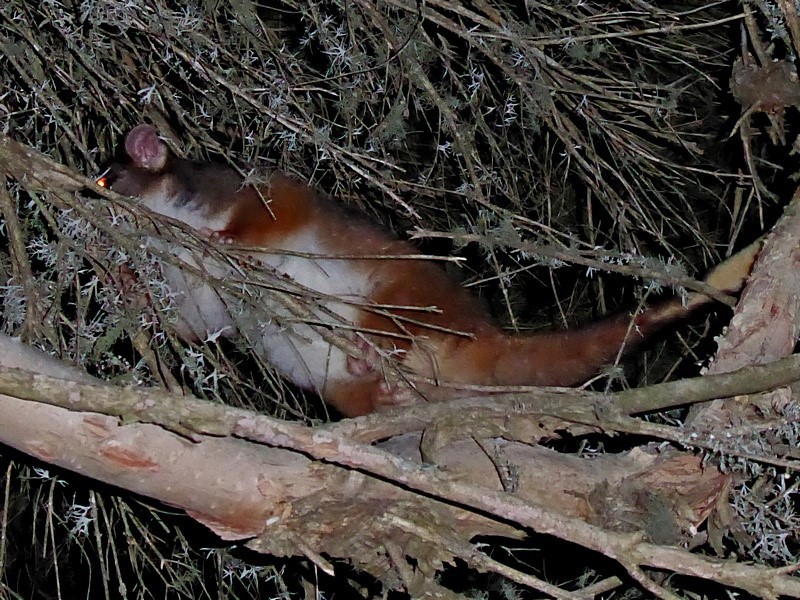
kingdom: Animalia
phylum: Chordata
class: Mammalia
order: Diprotodontia
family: Pseudocheiridae
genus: Pseudocheirus
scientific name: Pseudocheirus peregrinus
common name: Common ringtail possum
